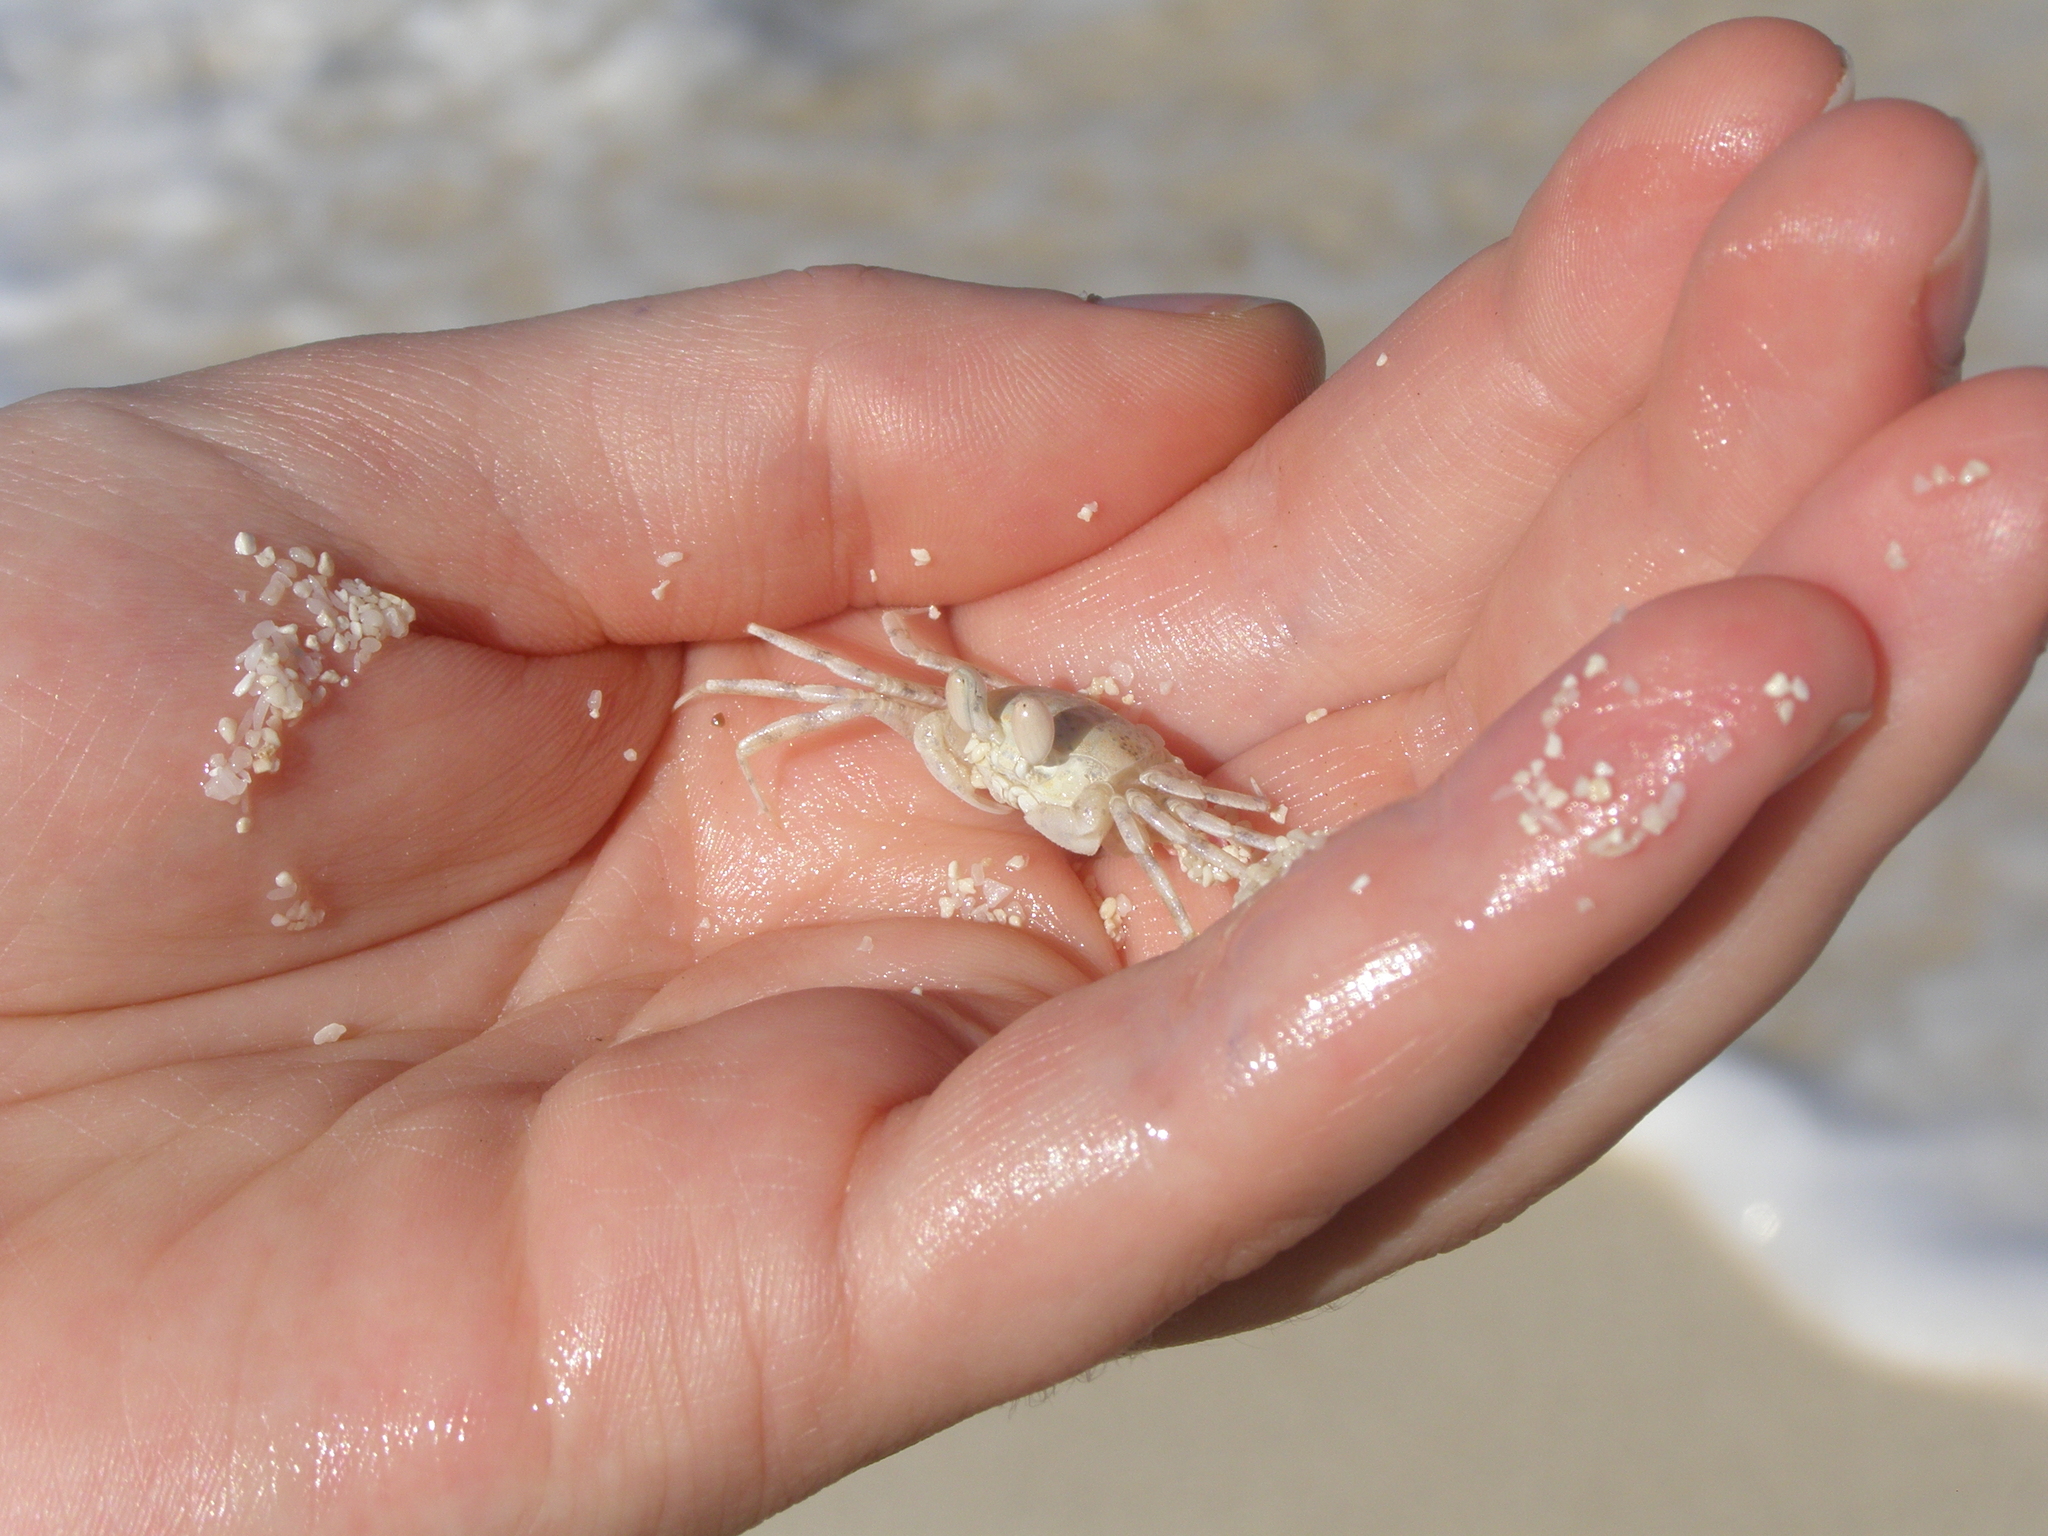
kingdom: Animalia
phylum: Arthropoda
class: Malacostraca
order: Decapoda
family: Ocypodidae
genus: Ocypode
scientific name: Ocypode
